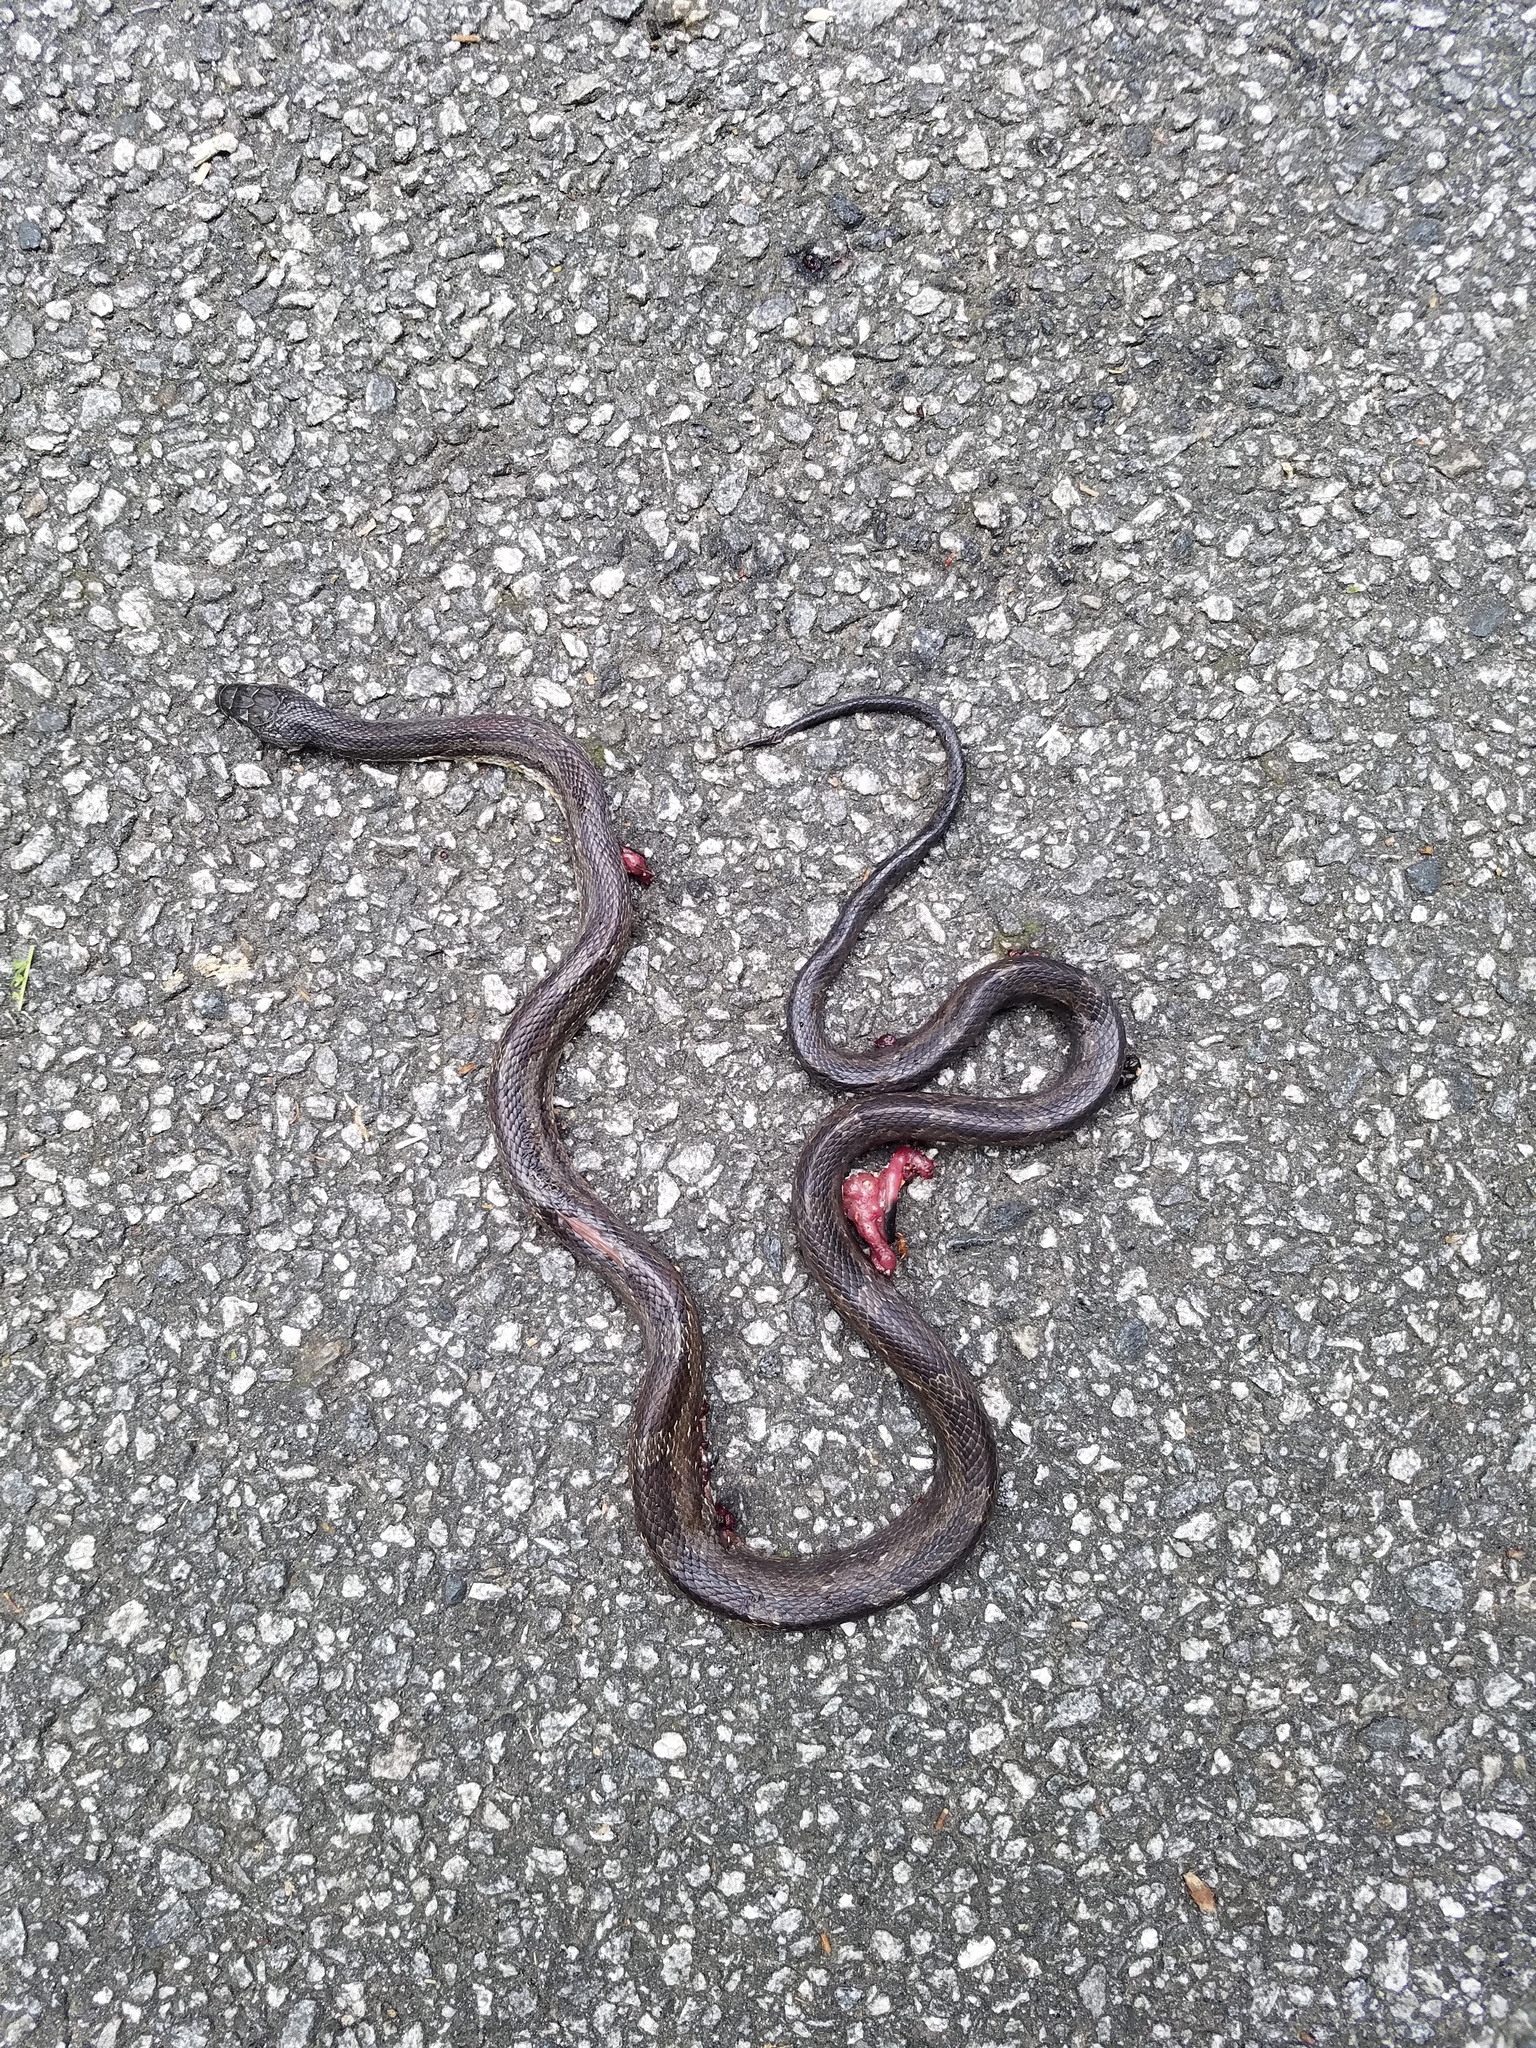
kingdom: Animalia
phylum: Chordata
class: Squamata
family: Colubridae
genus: Pantherophis
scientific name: Pantherophis
